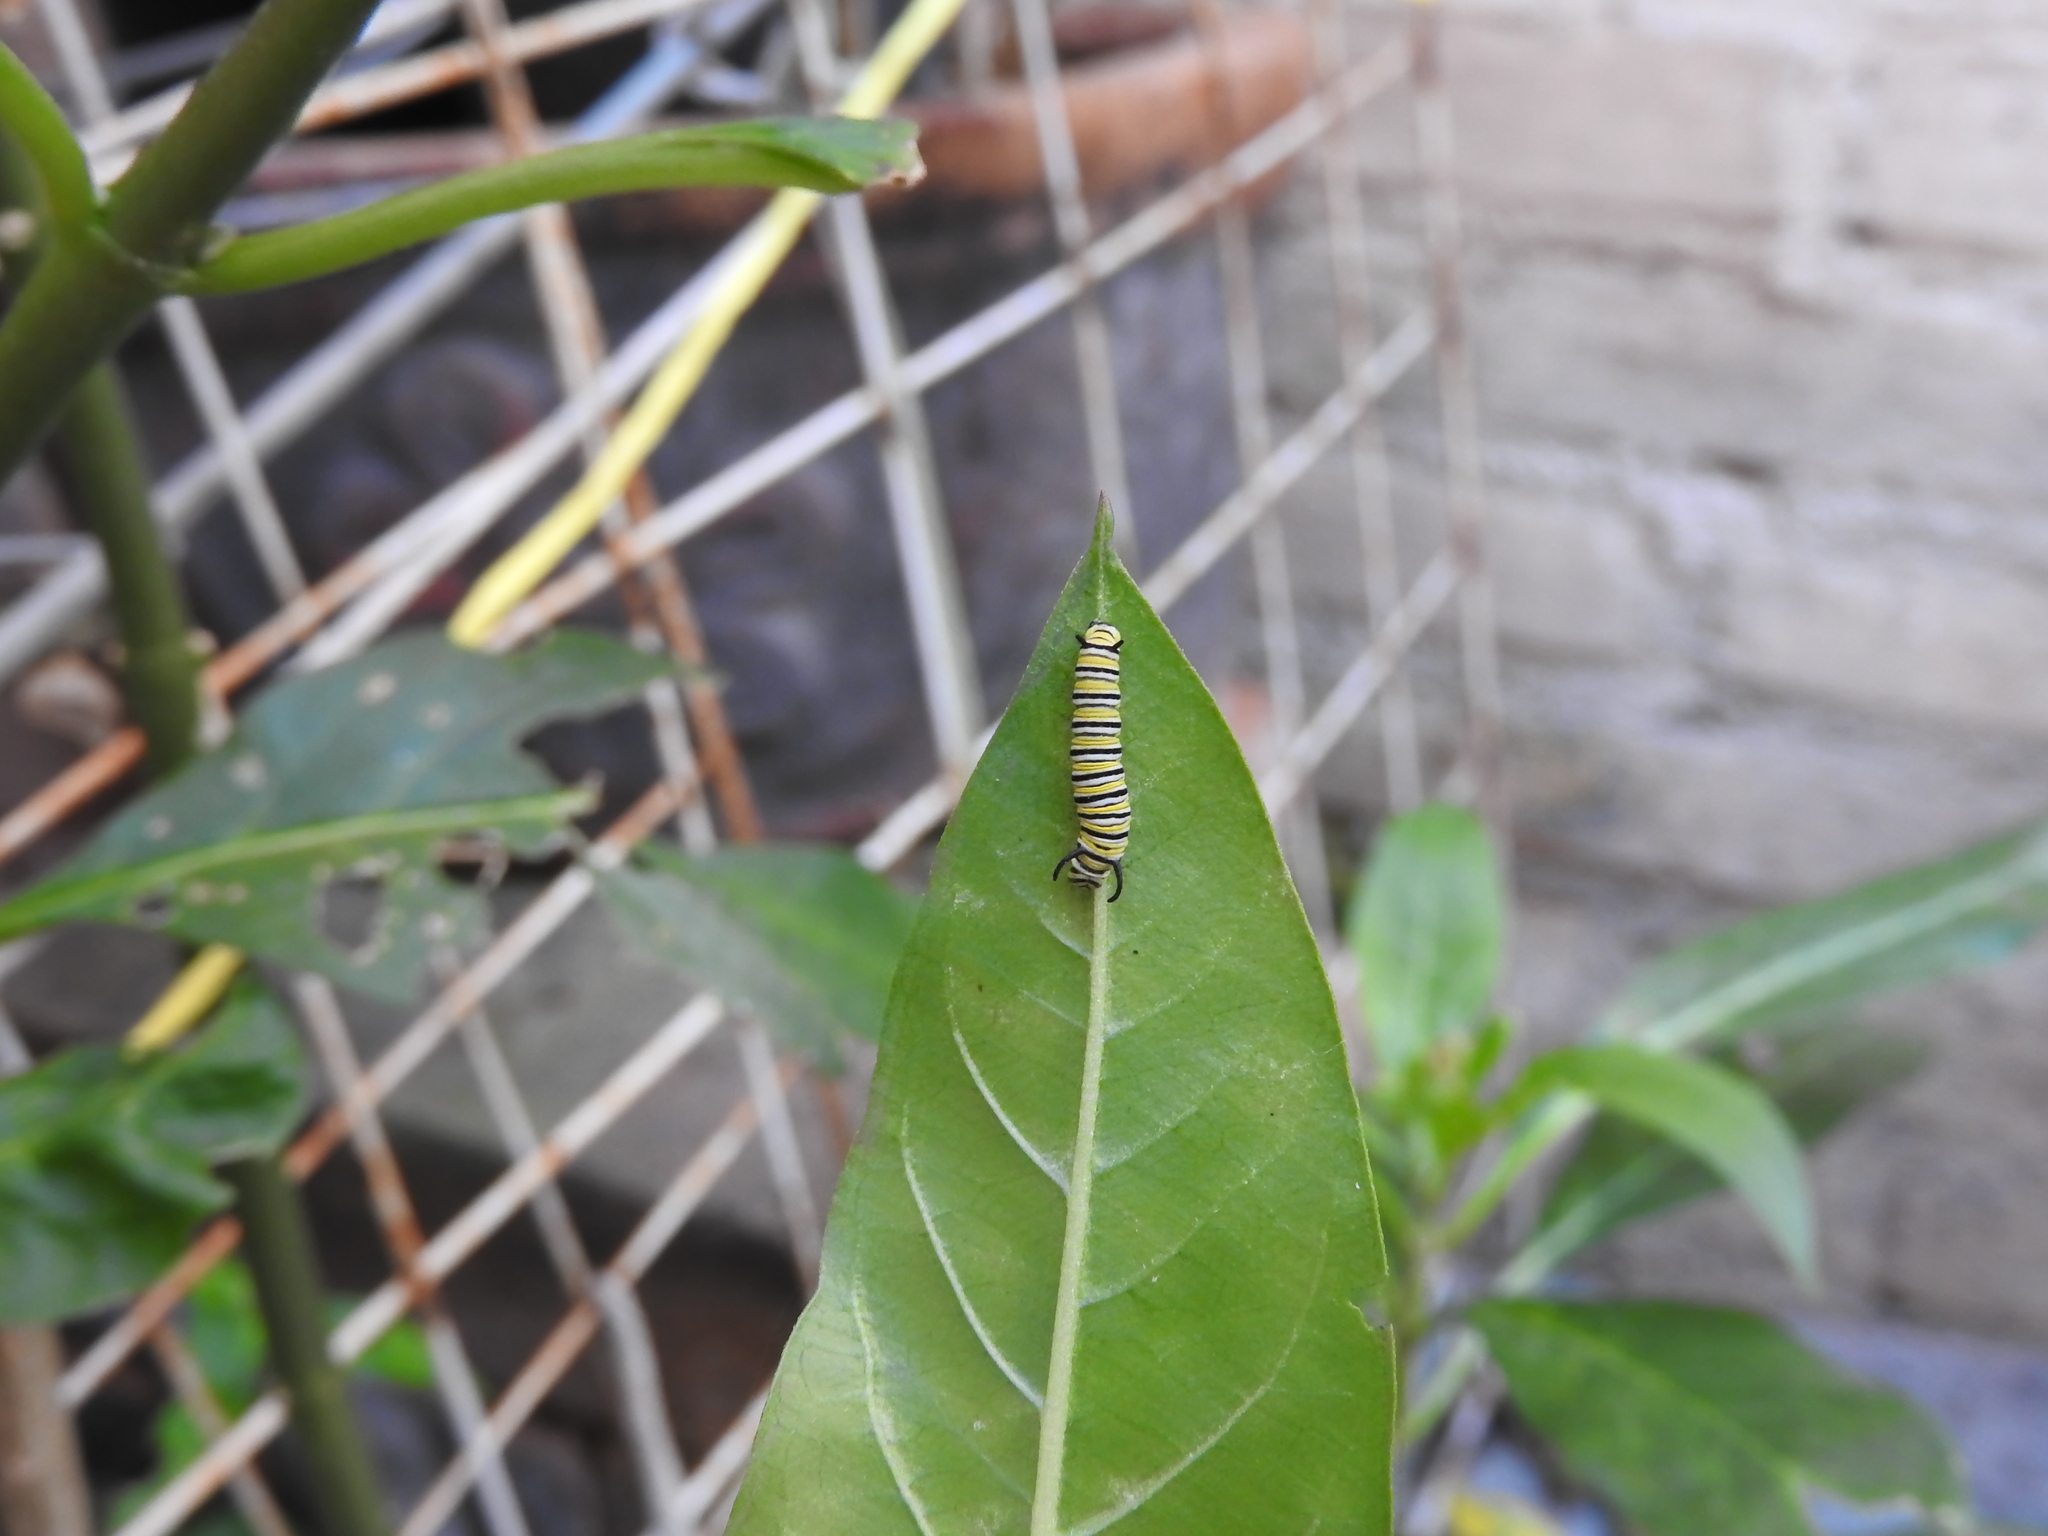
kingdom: Animalia
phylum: Arthropoda
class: Insecta
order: Lepidoptera
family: Nymphalidae
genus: Danaus
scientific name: Danaus plexippus
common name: Monarch
